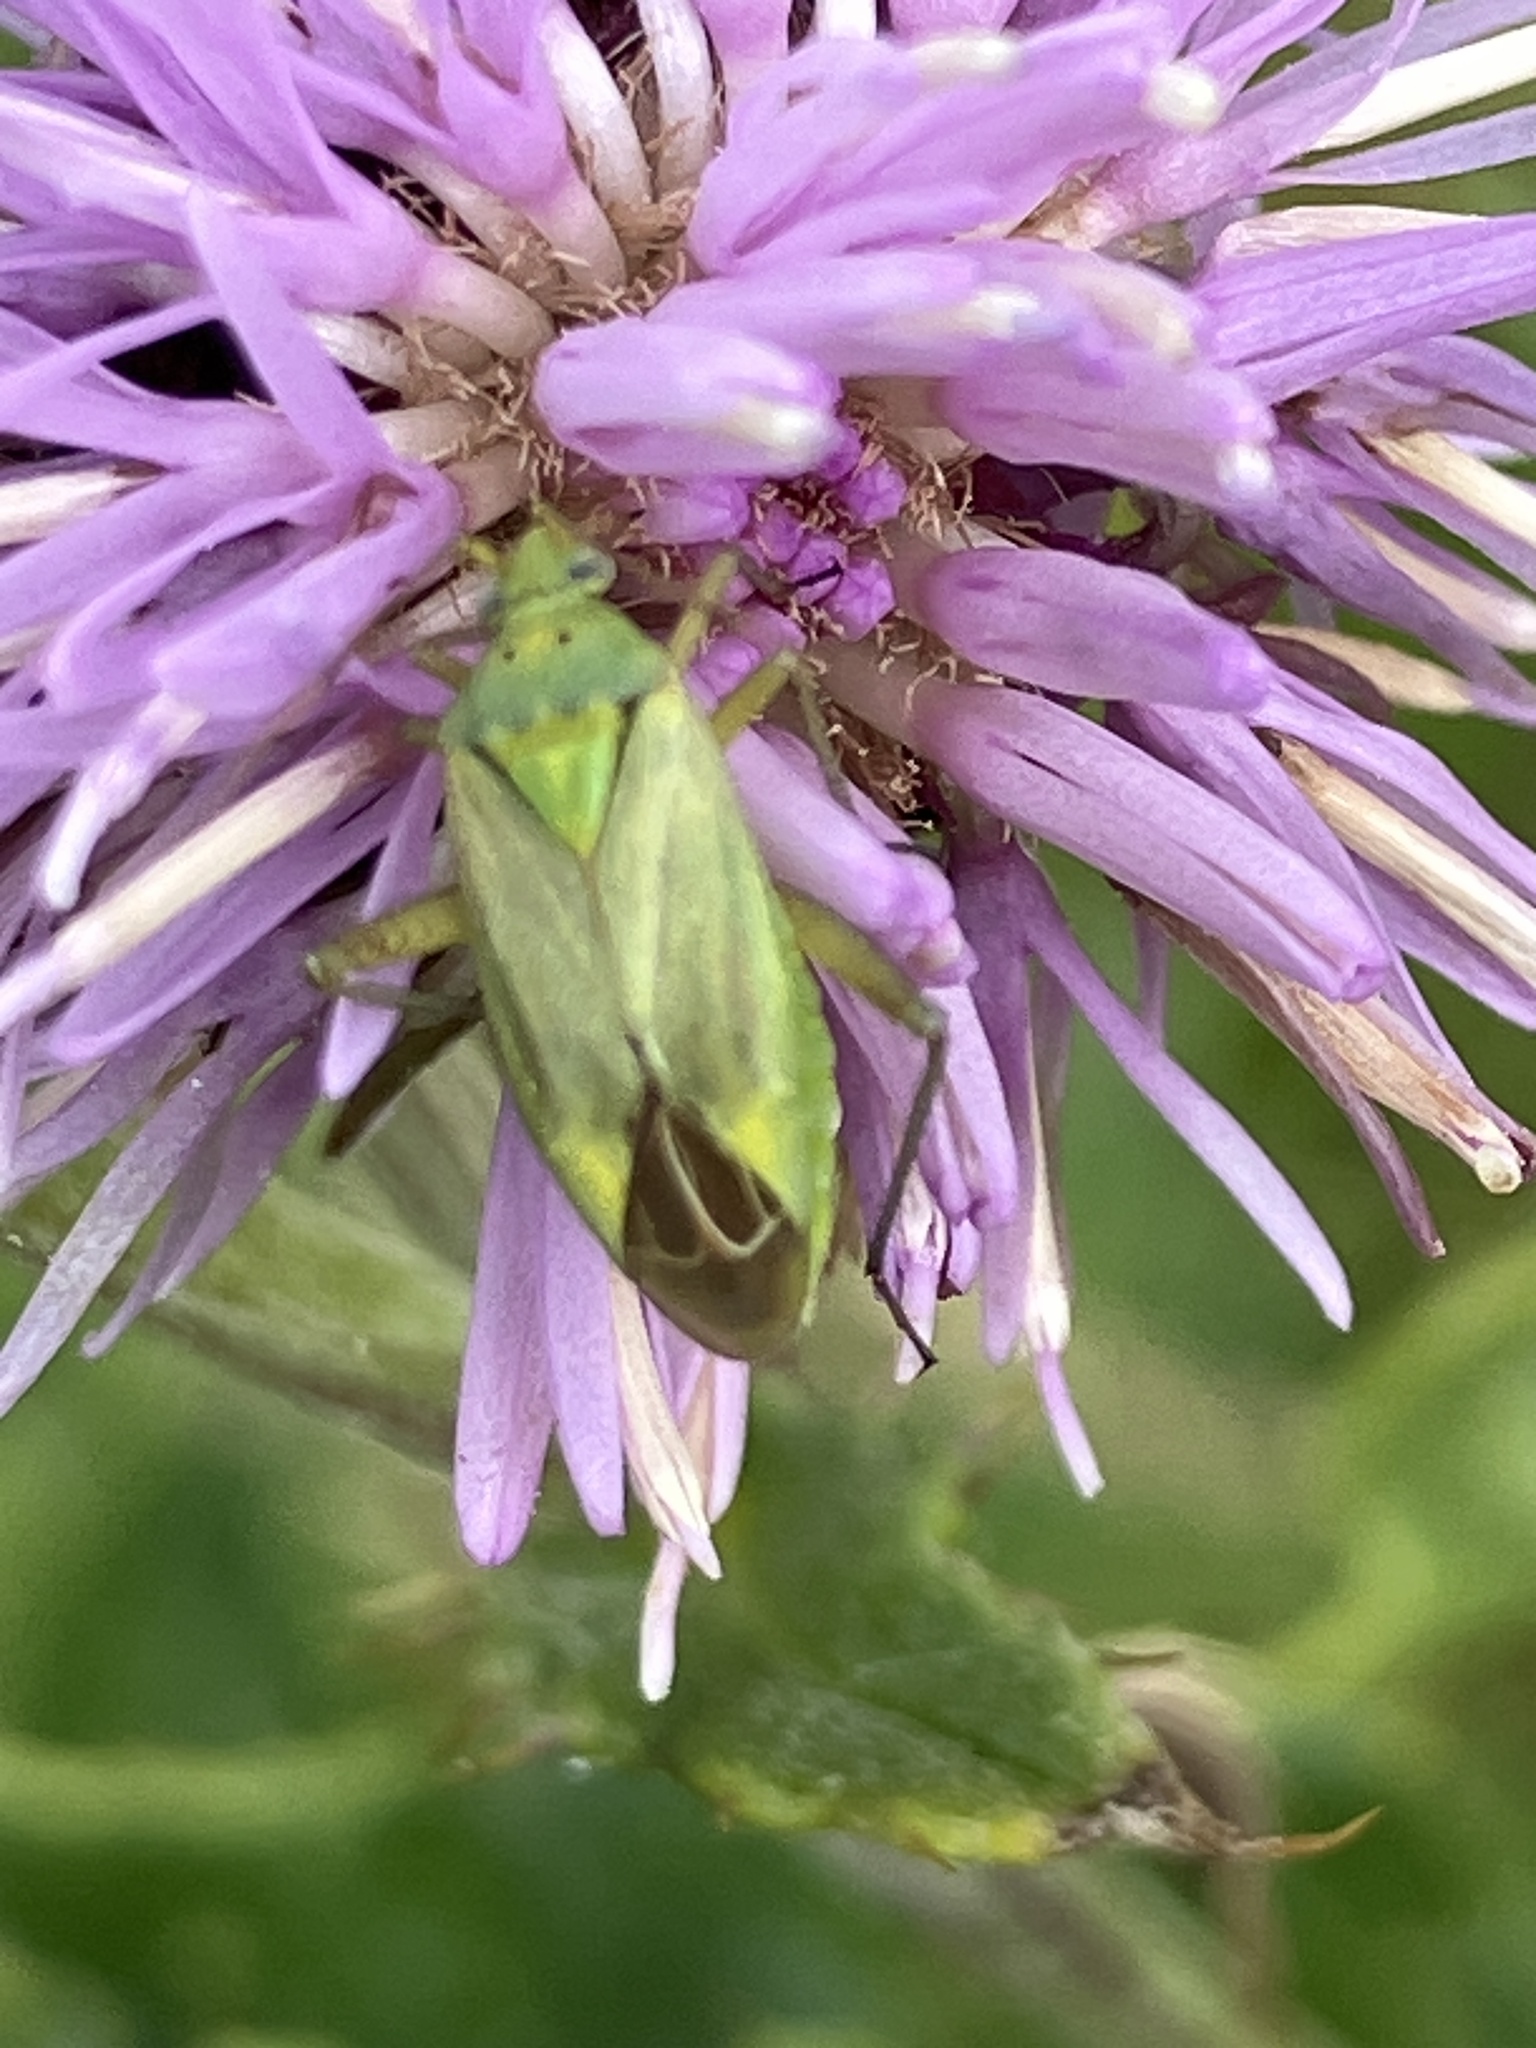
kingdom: Animalia
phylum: Arthropoda
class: Insecta
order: Hemiptera
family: Miridae
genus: Closterotomus
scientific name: Closterotomus norvegicus
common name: Plant bug
